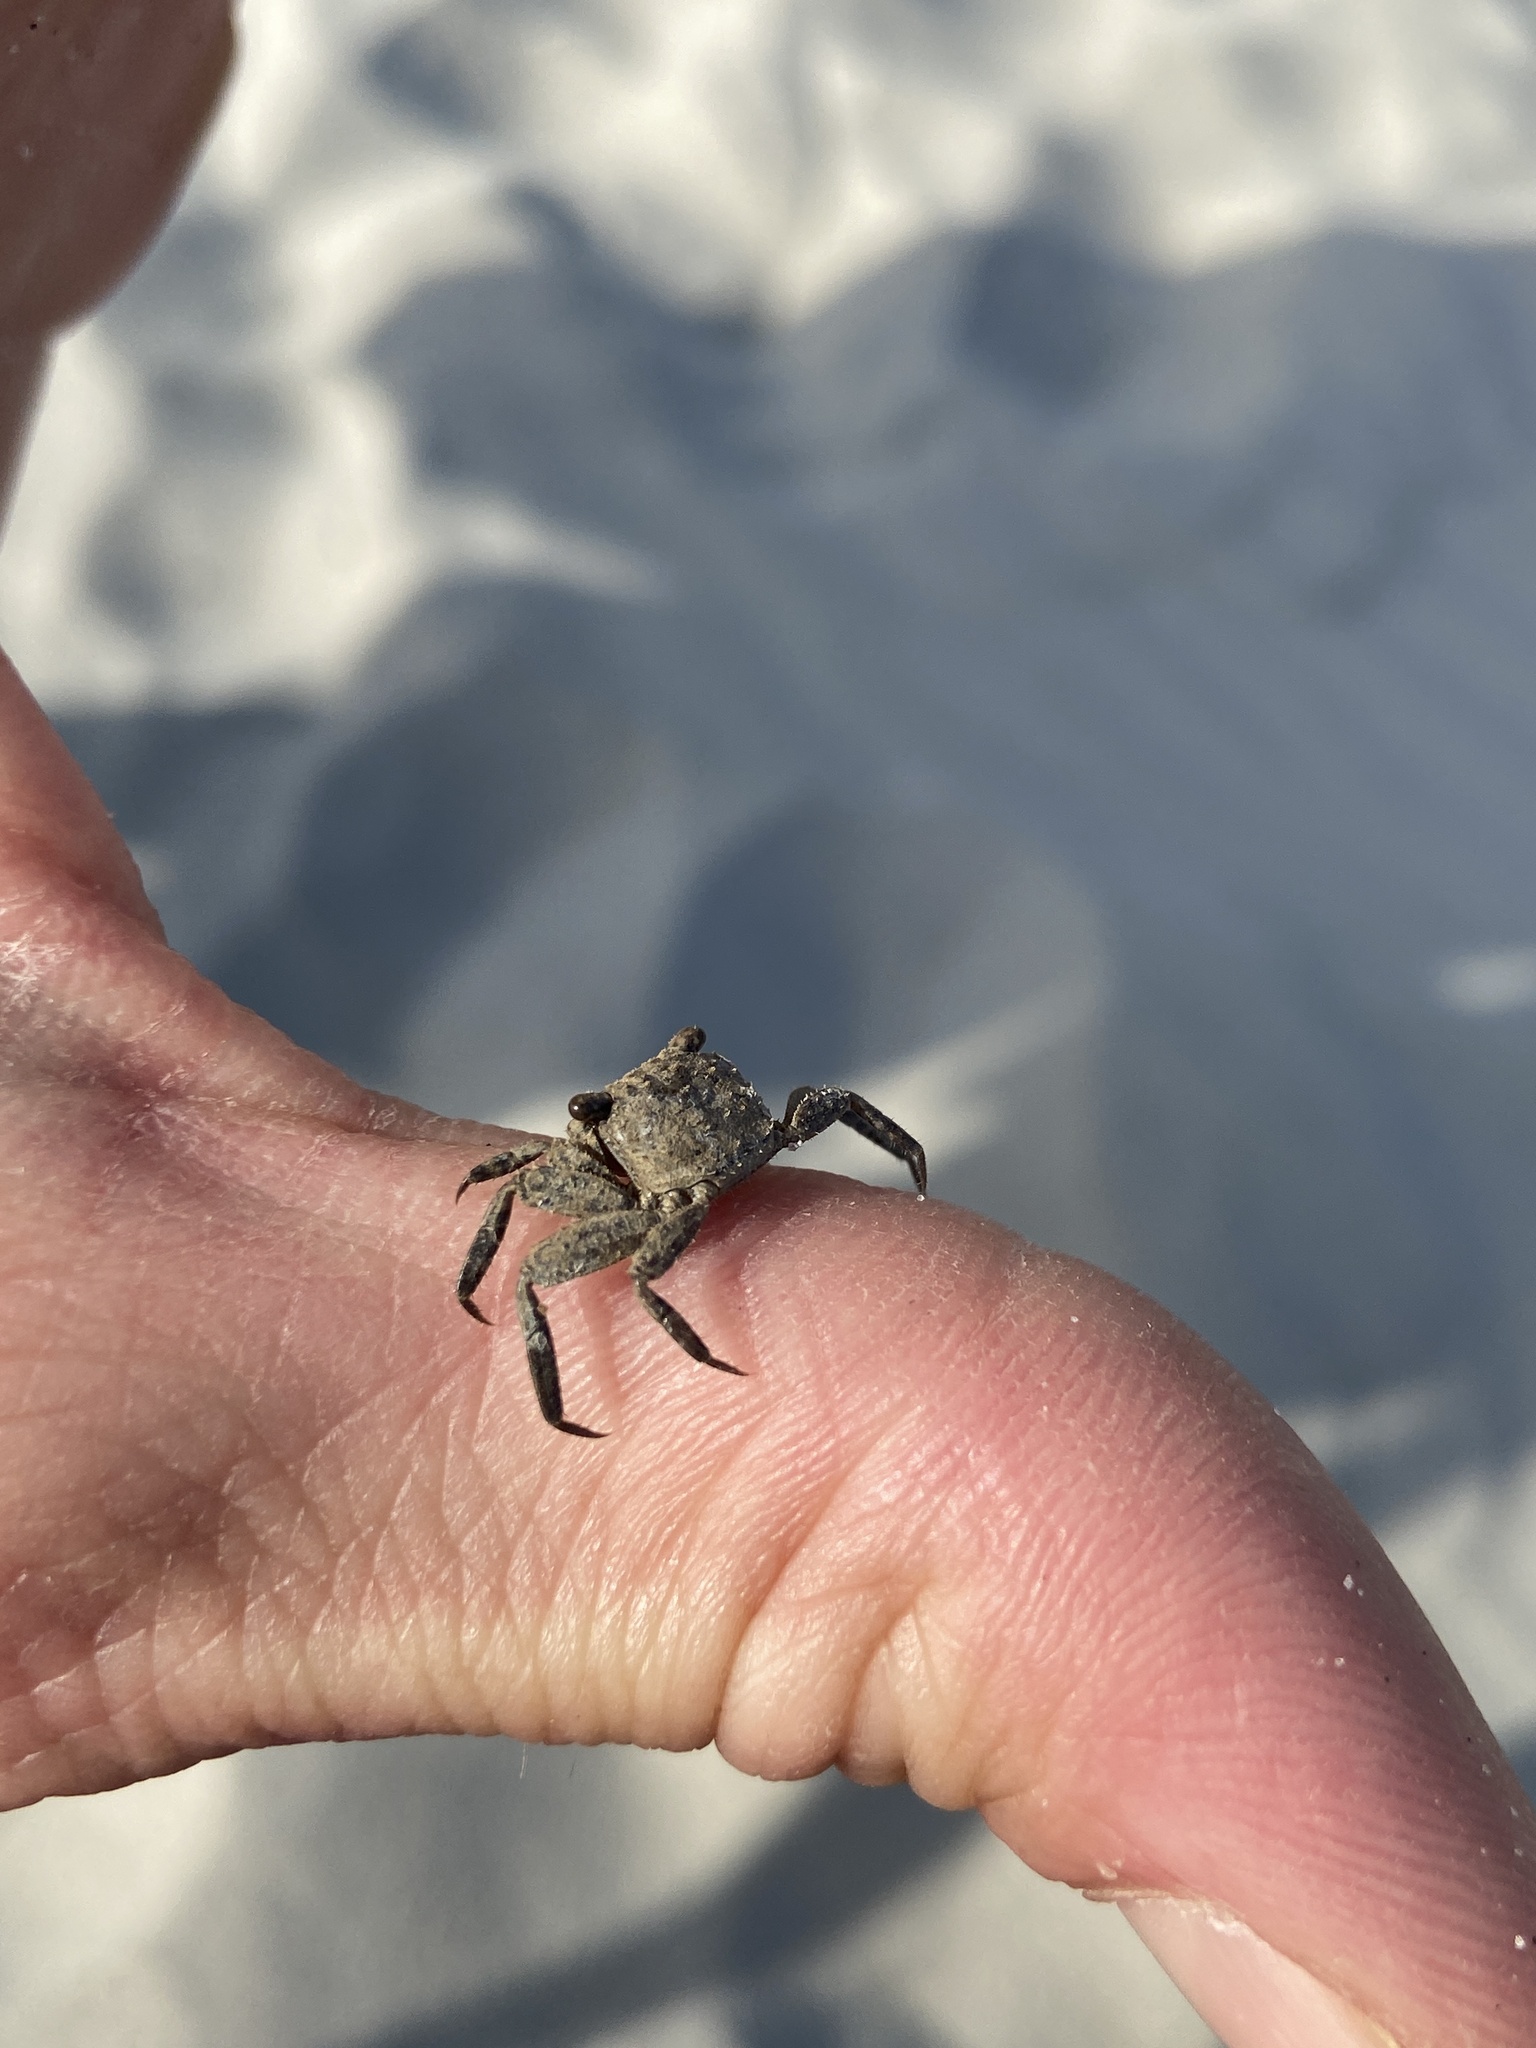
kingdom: Animalia
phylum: Arthropoda
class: Malacostraca
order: Decapoda
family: Sesarmidae
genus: Armases
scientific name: Armases cinereum
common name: Squareback marsh crab
